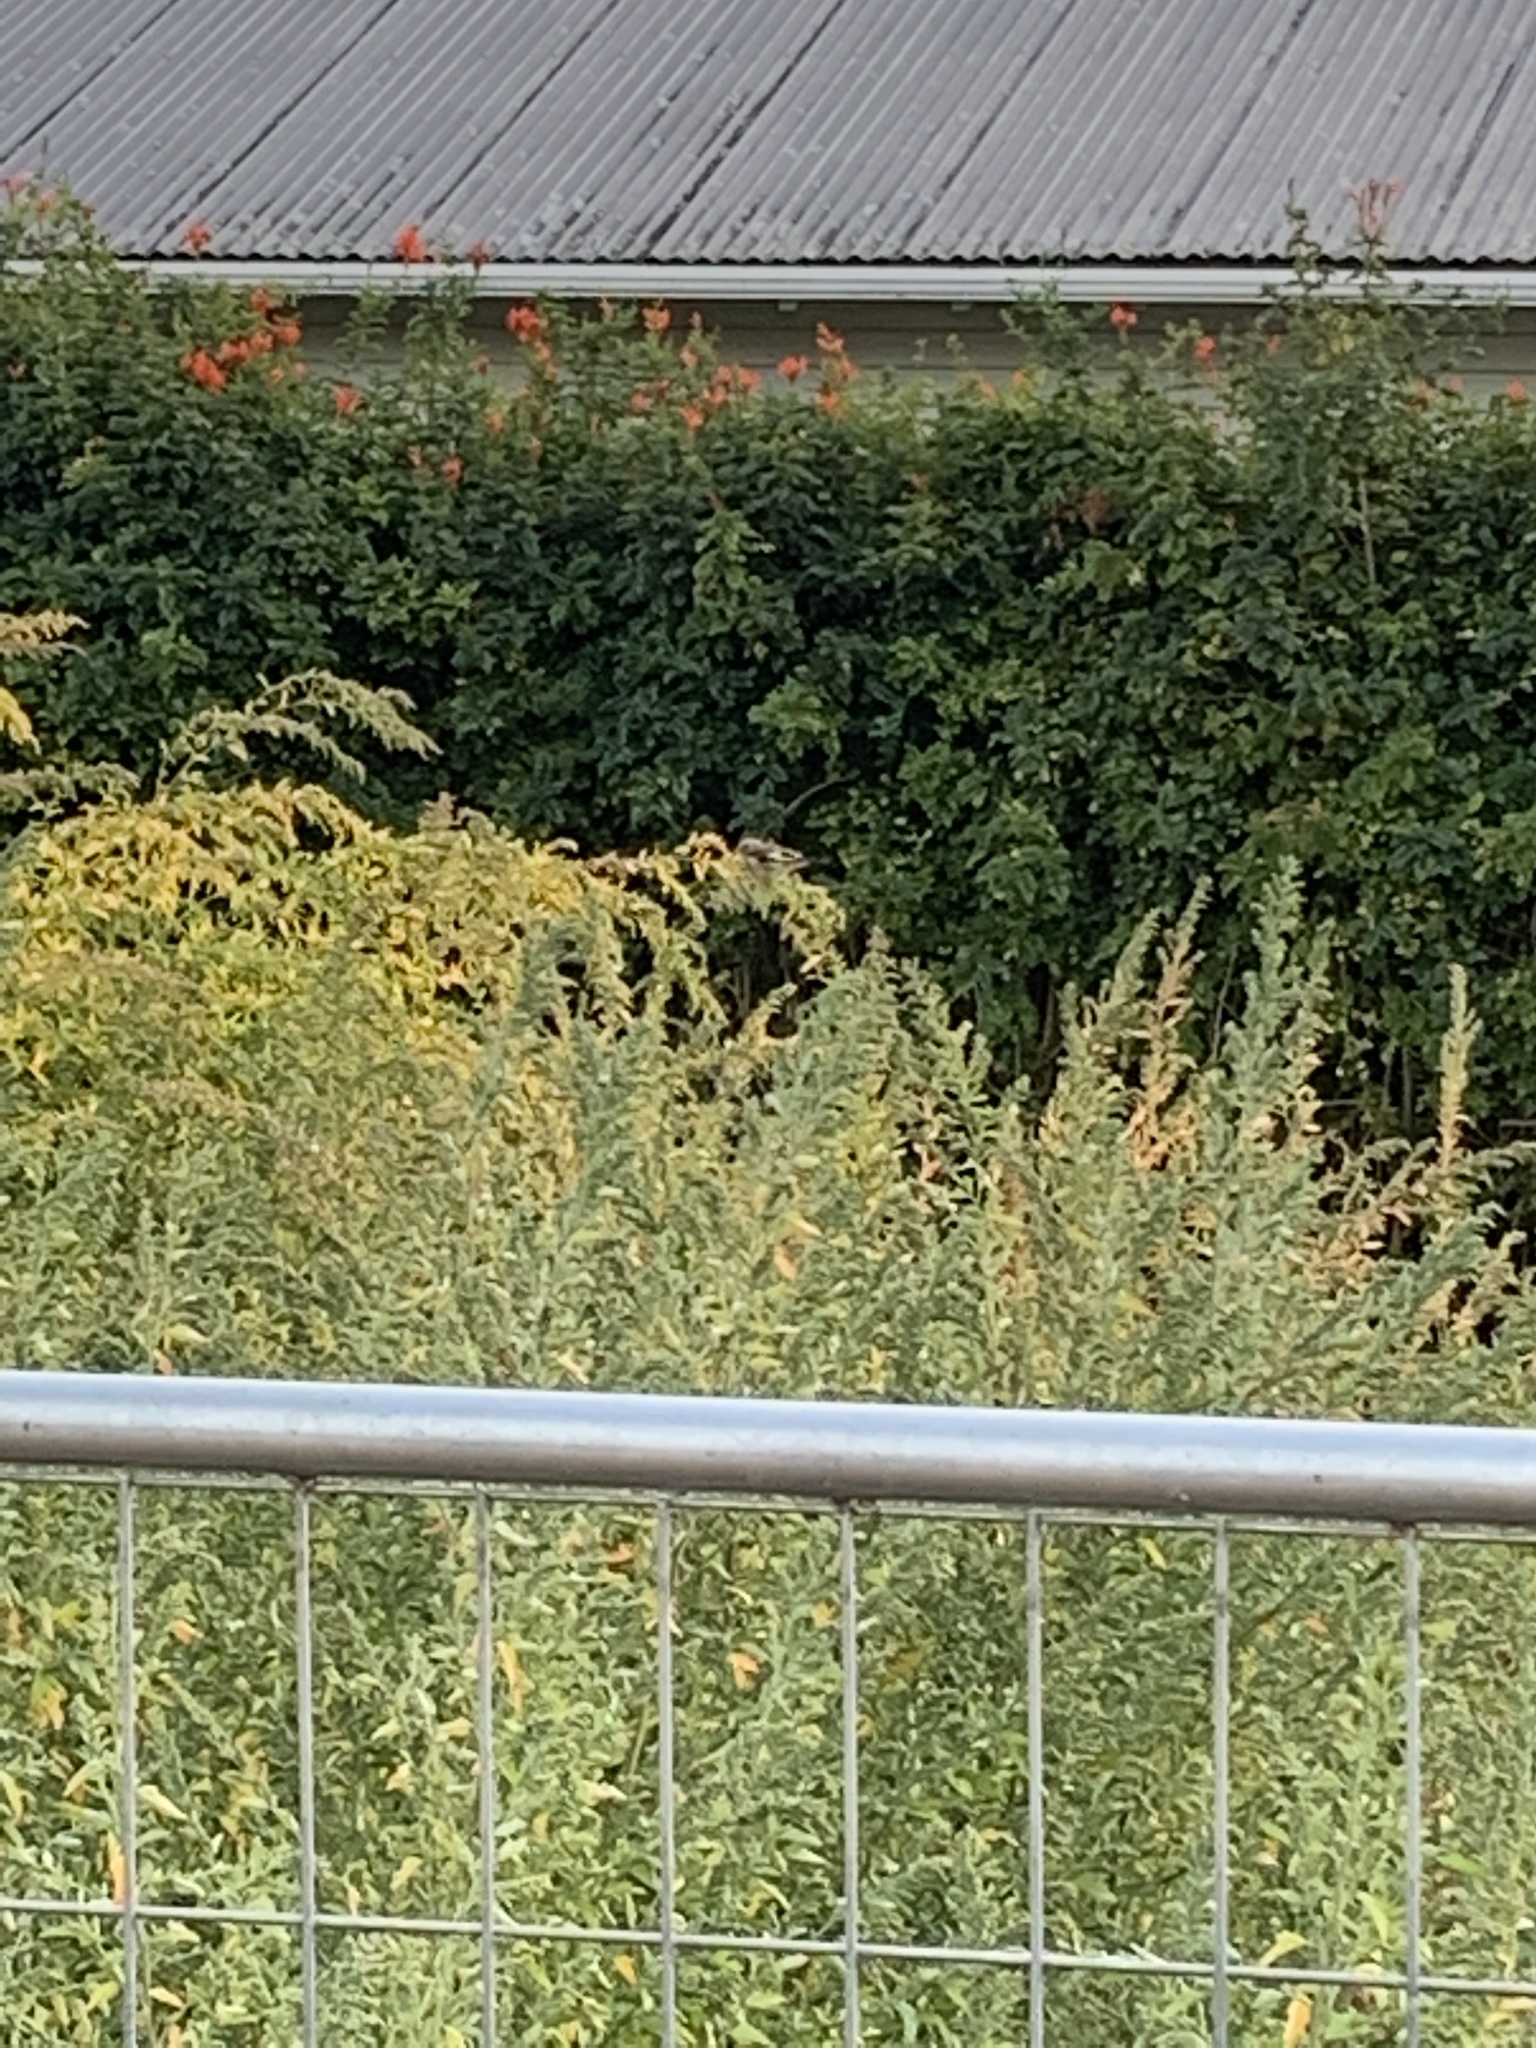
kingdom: Animalia
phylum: Chordata
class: Aves
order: Passeriformes
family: Fringillidae
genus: Carduelis
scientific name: Carduelis carduelis
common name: European goldfinch
